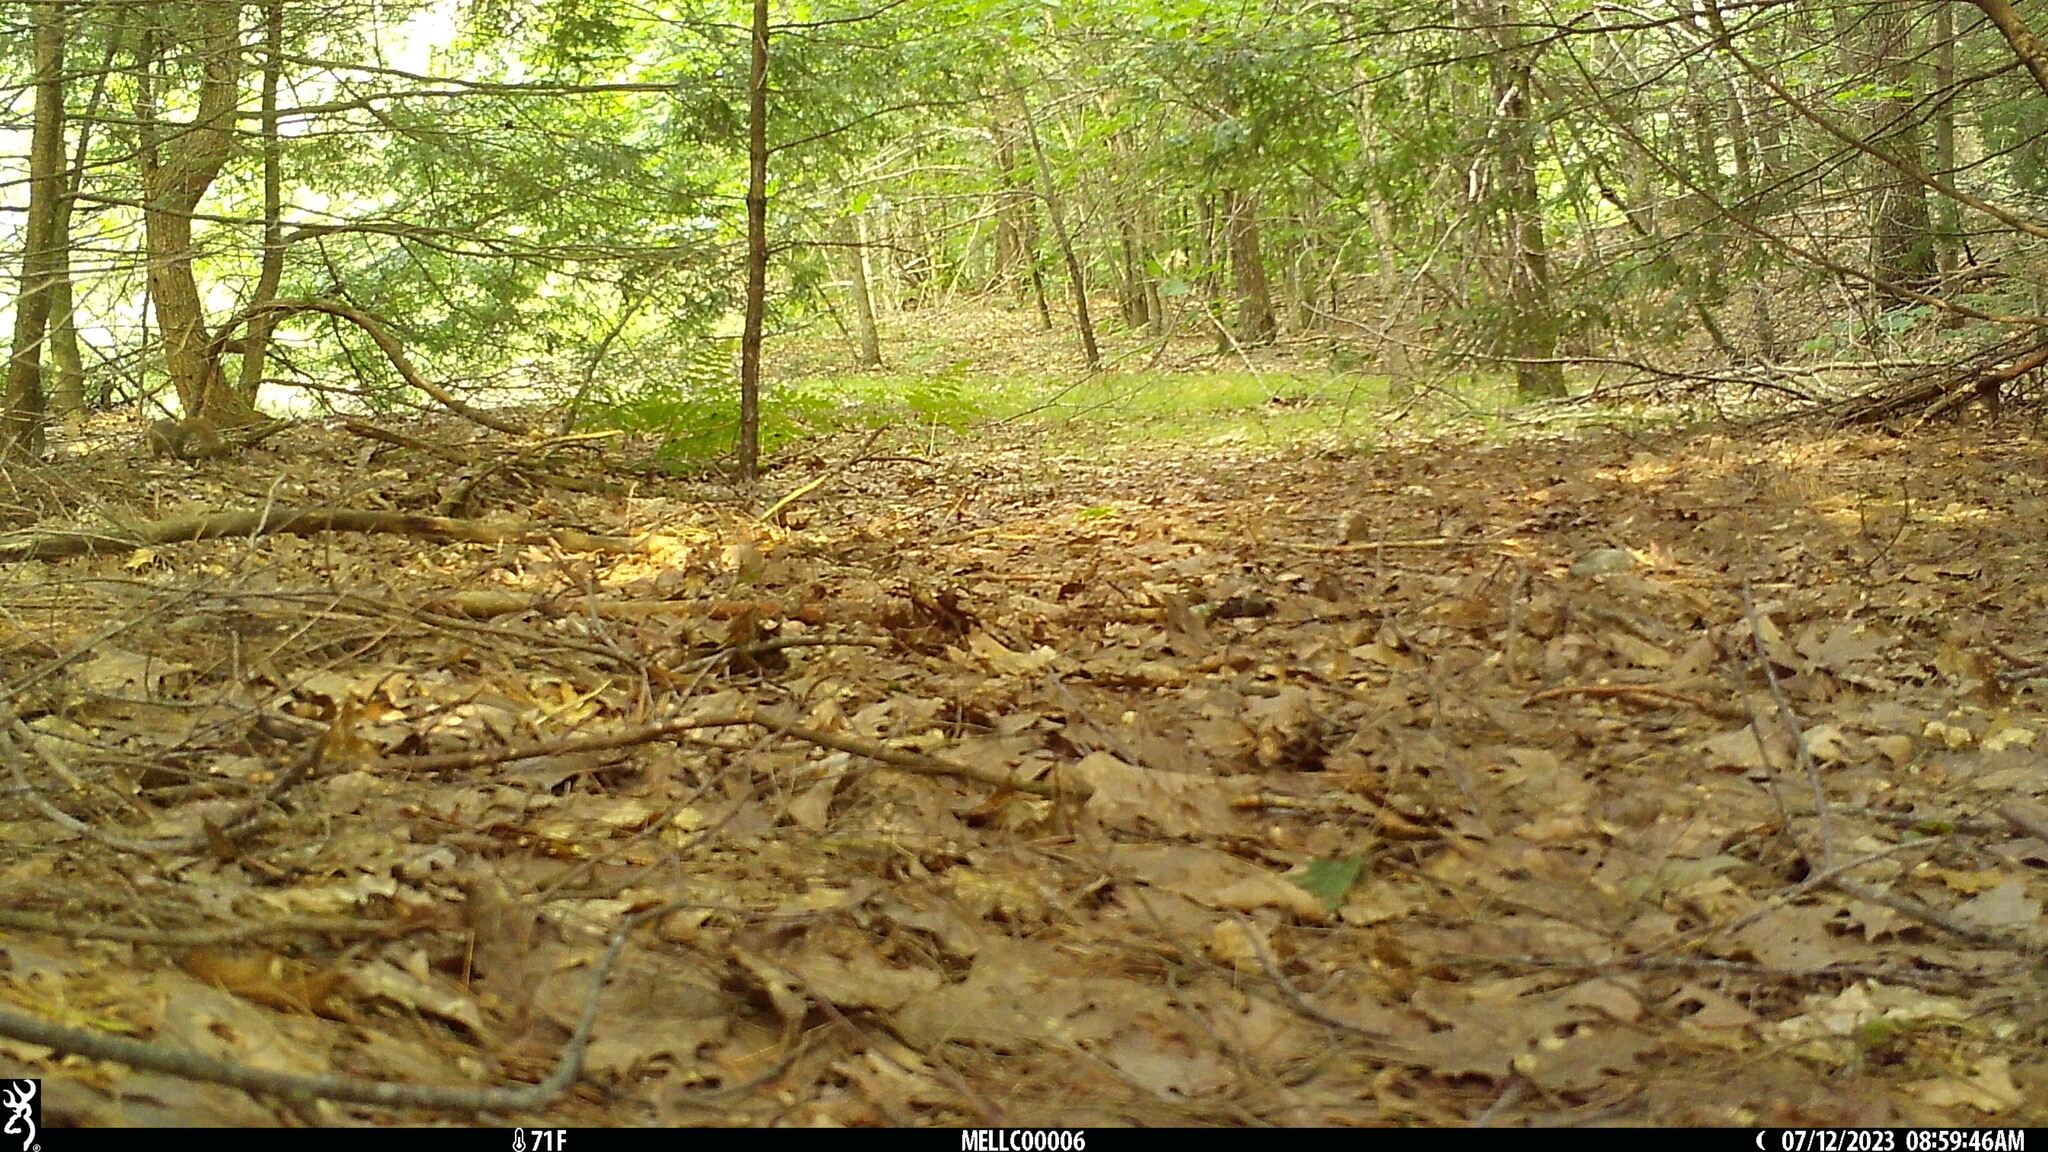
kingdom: Animalia
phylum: Chordata
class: Mammalia
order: Rodentia
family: Sciuridae
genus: Tamiasciurus
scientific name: Tamiasciurus hudsonicus
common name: Red squirrel
